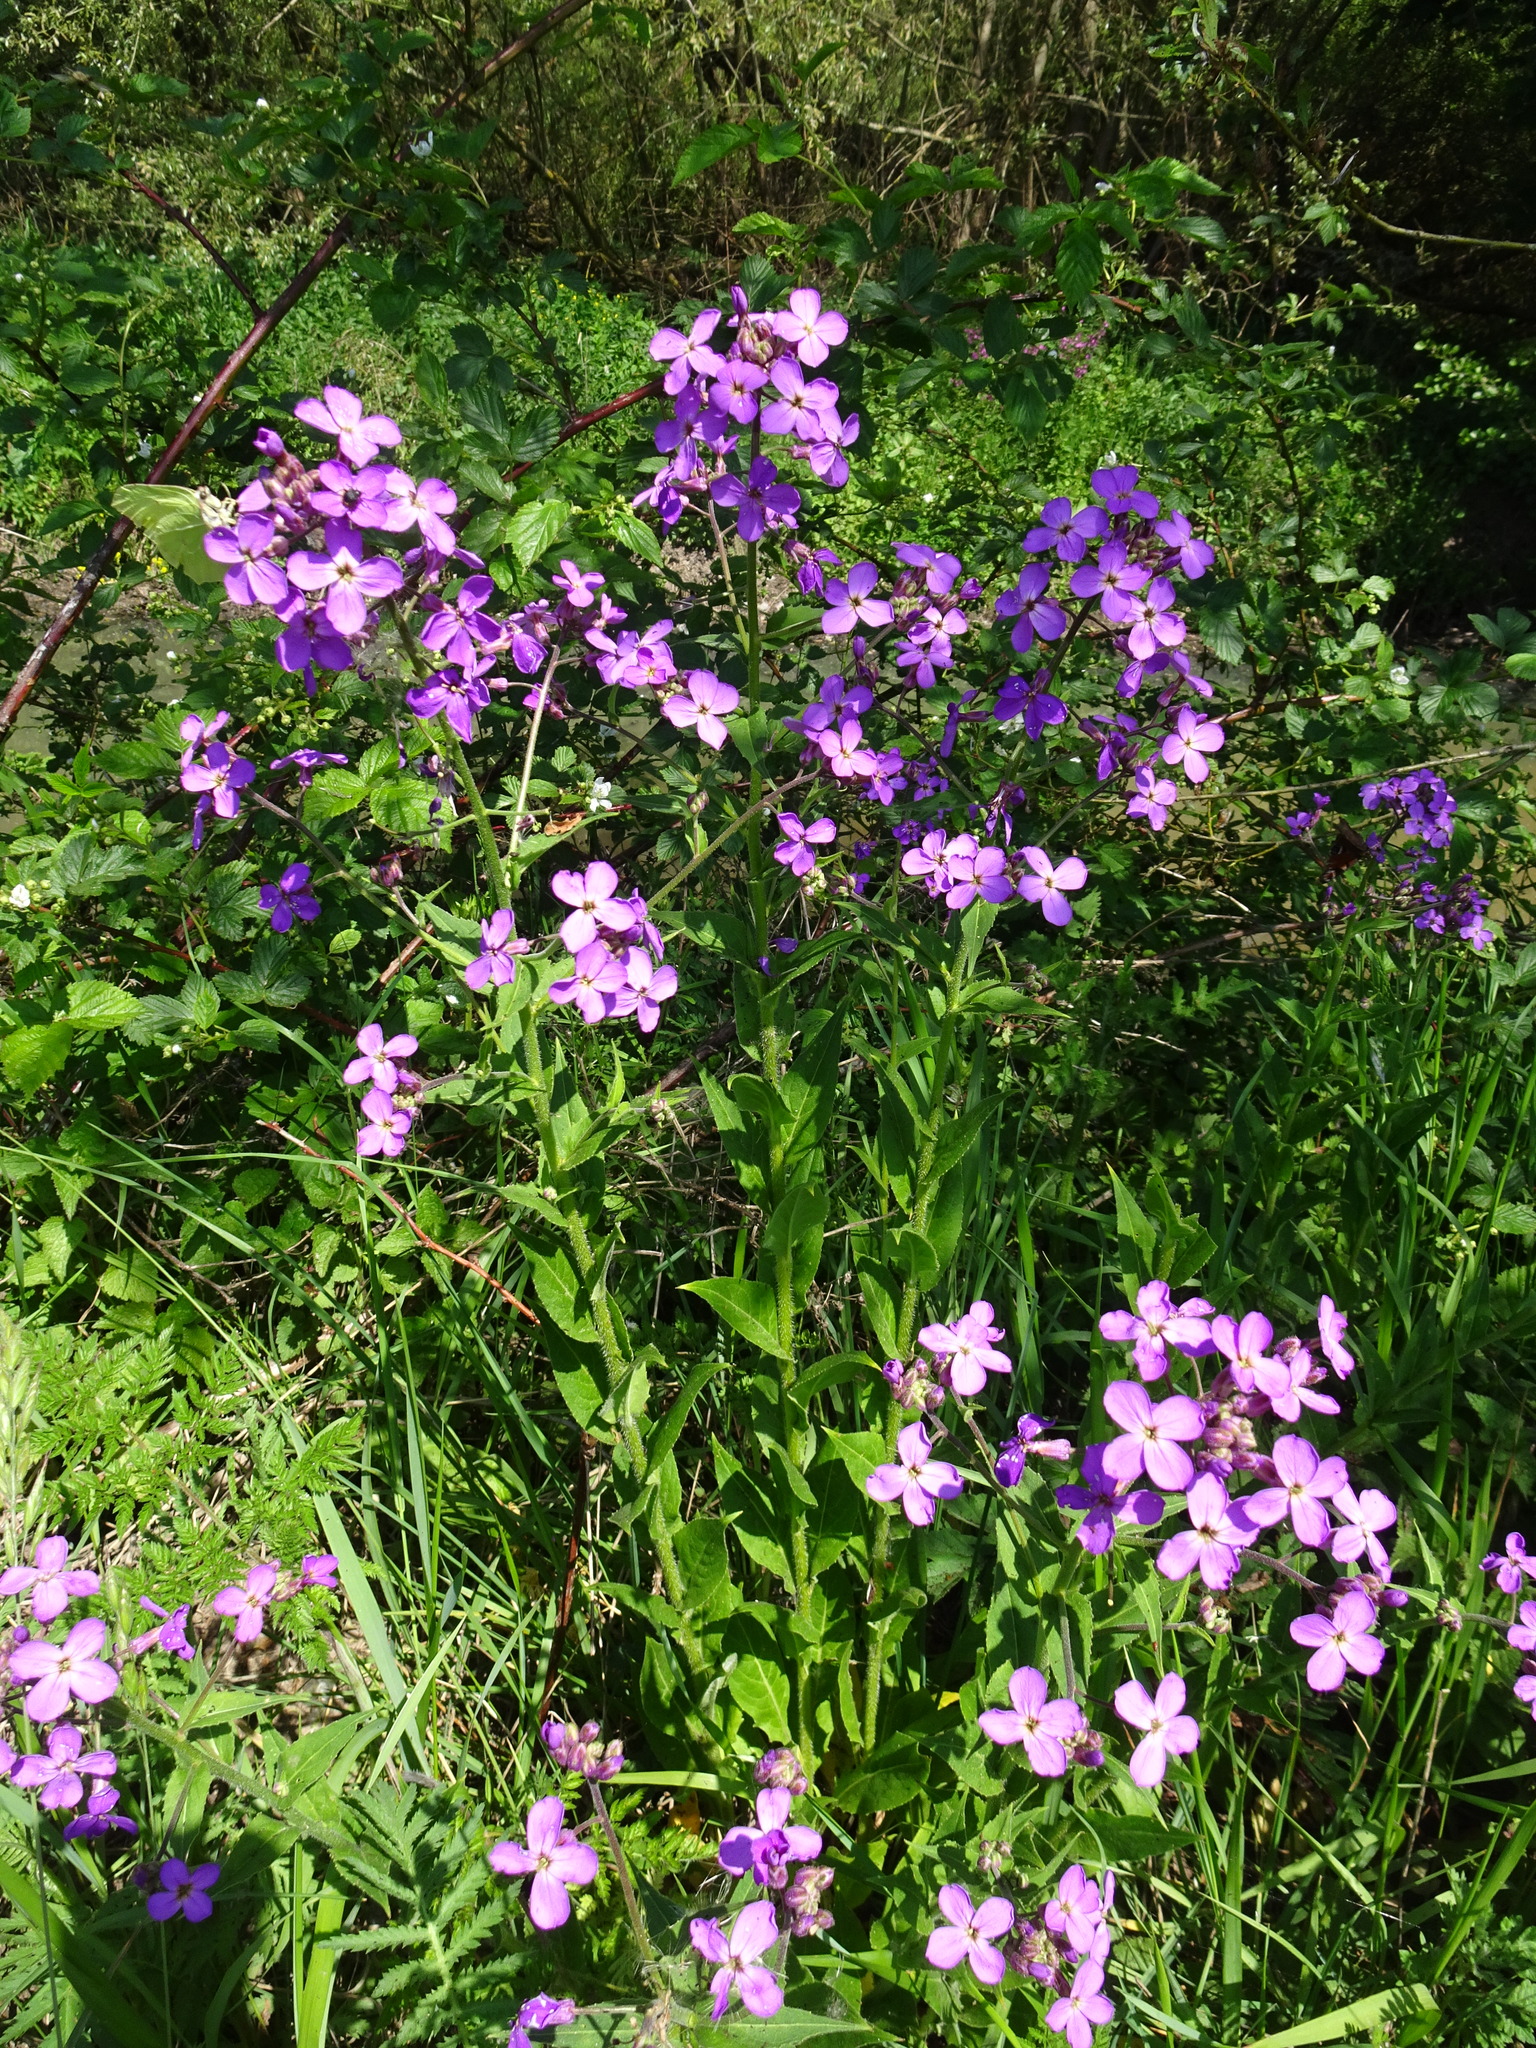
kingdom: Plantae
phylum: Tracheophyta
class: Magnoliopsida
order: Brassicales
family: Brassicaceae
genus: Hesperis
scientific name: Hesperis matronalis
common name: Dame's-violet
